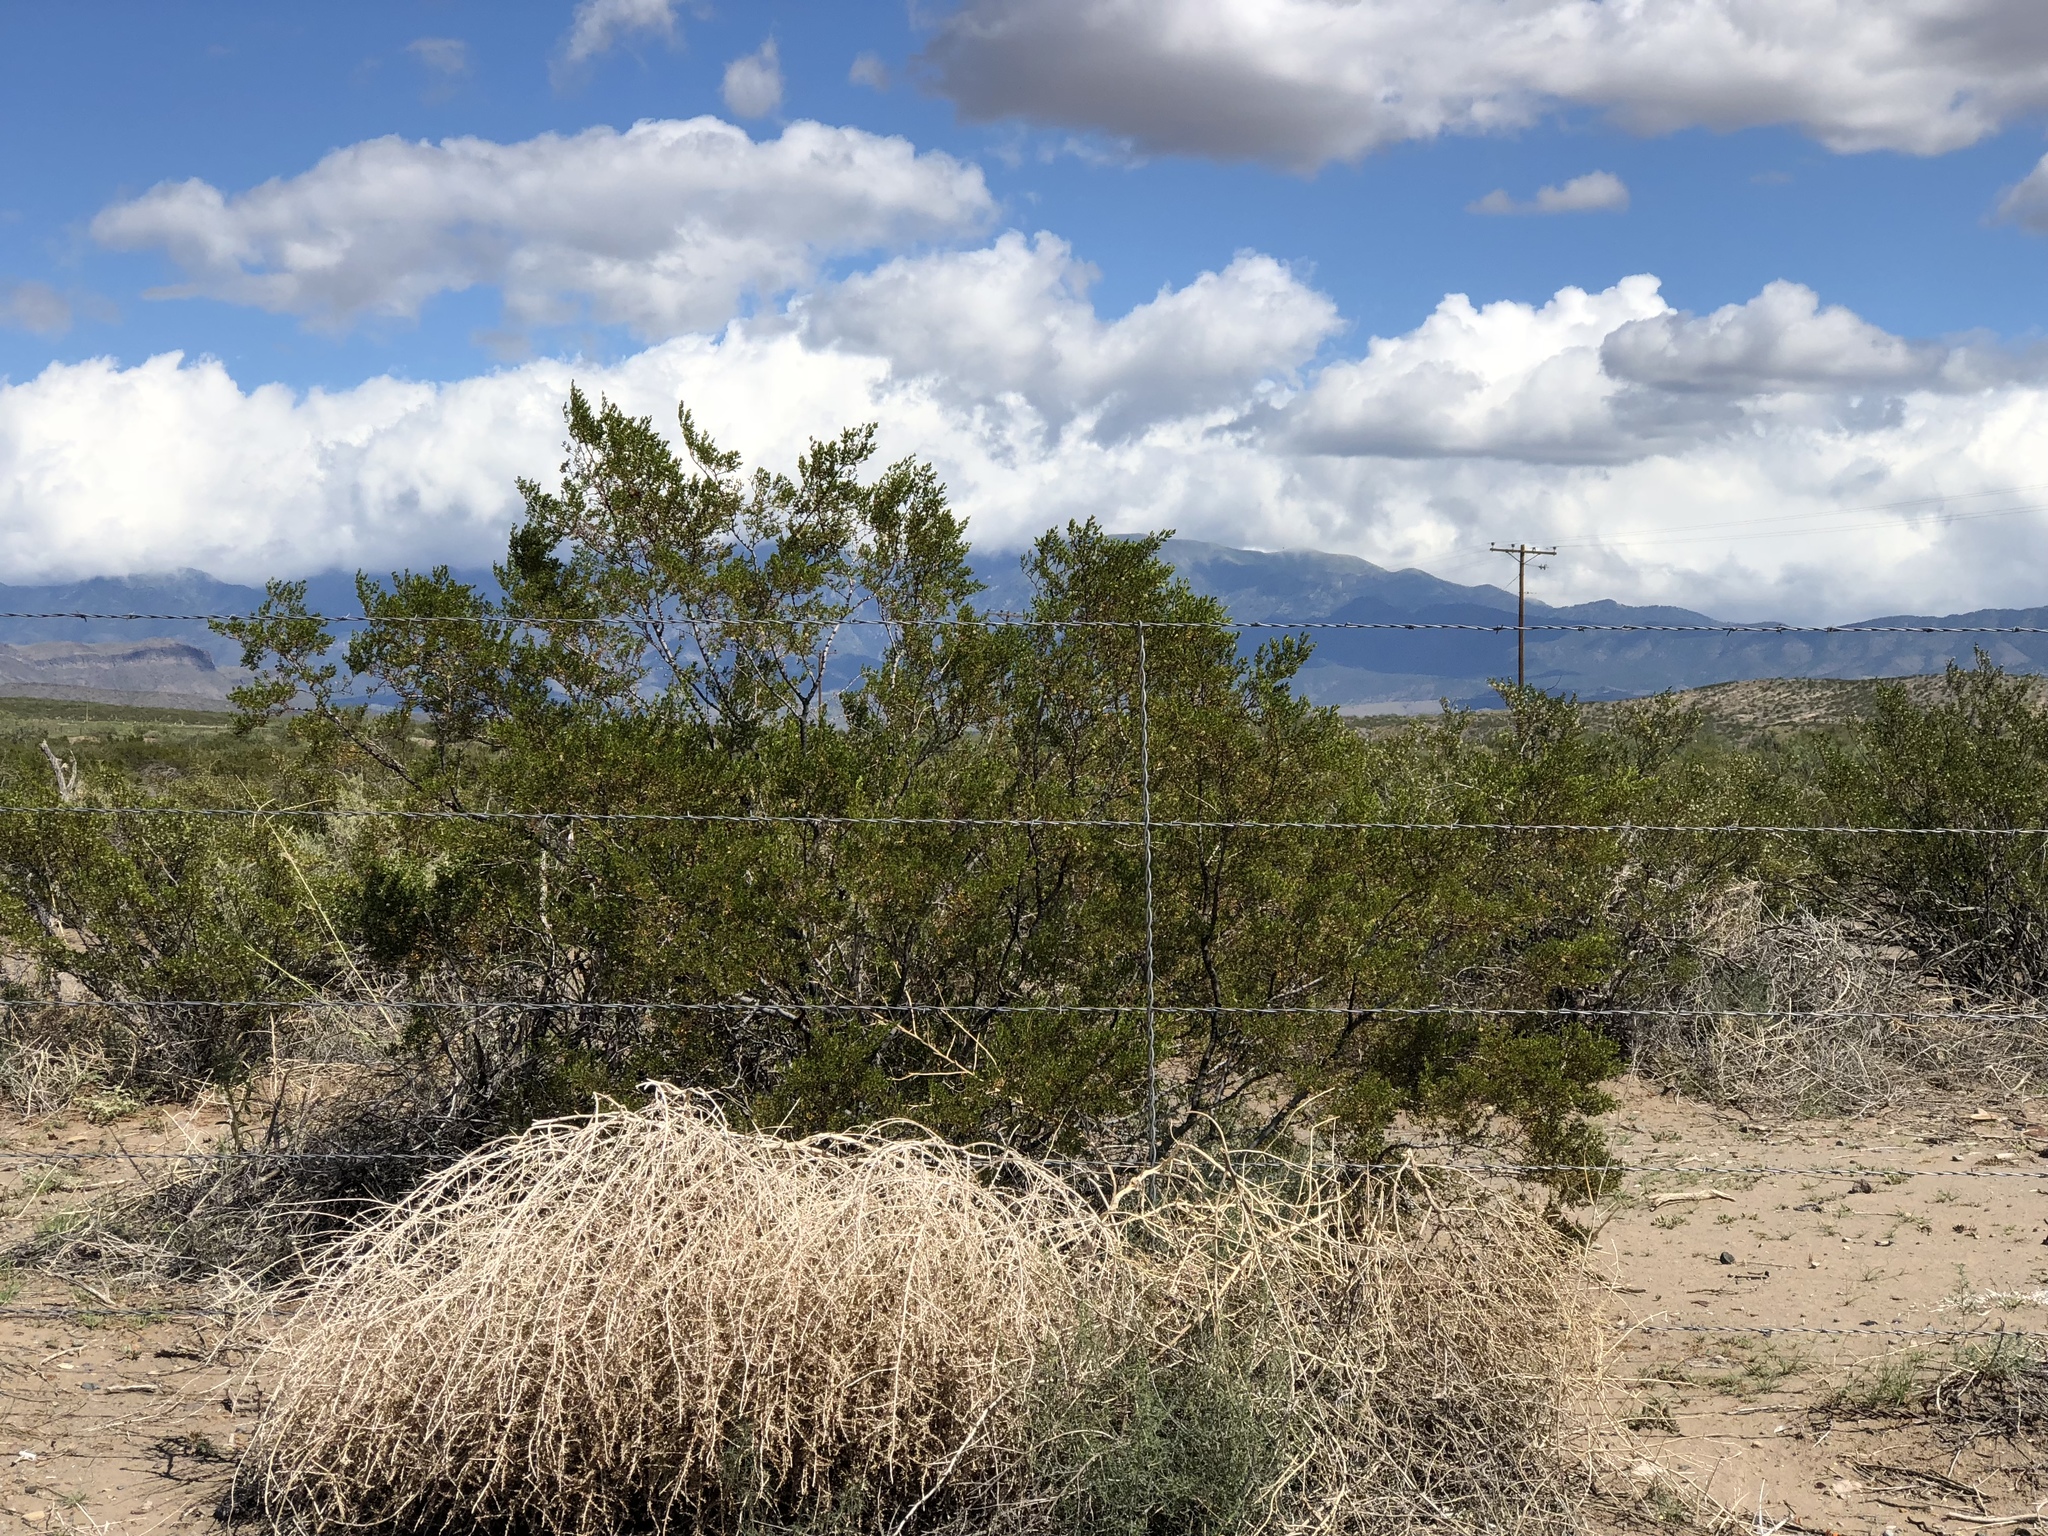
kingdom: Plantae
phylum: Tracheophyta
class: Magnoliopsida
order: Zygophyllales
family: Zygophyllaceae
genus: Larrea
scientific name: Larrea tridentata
